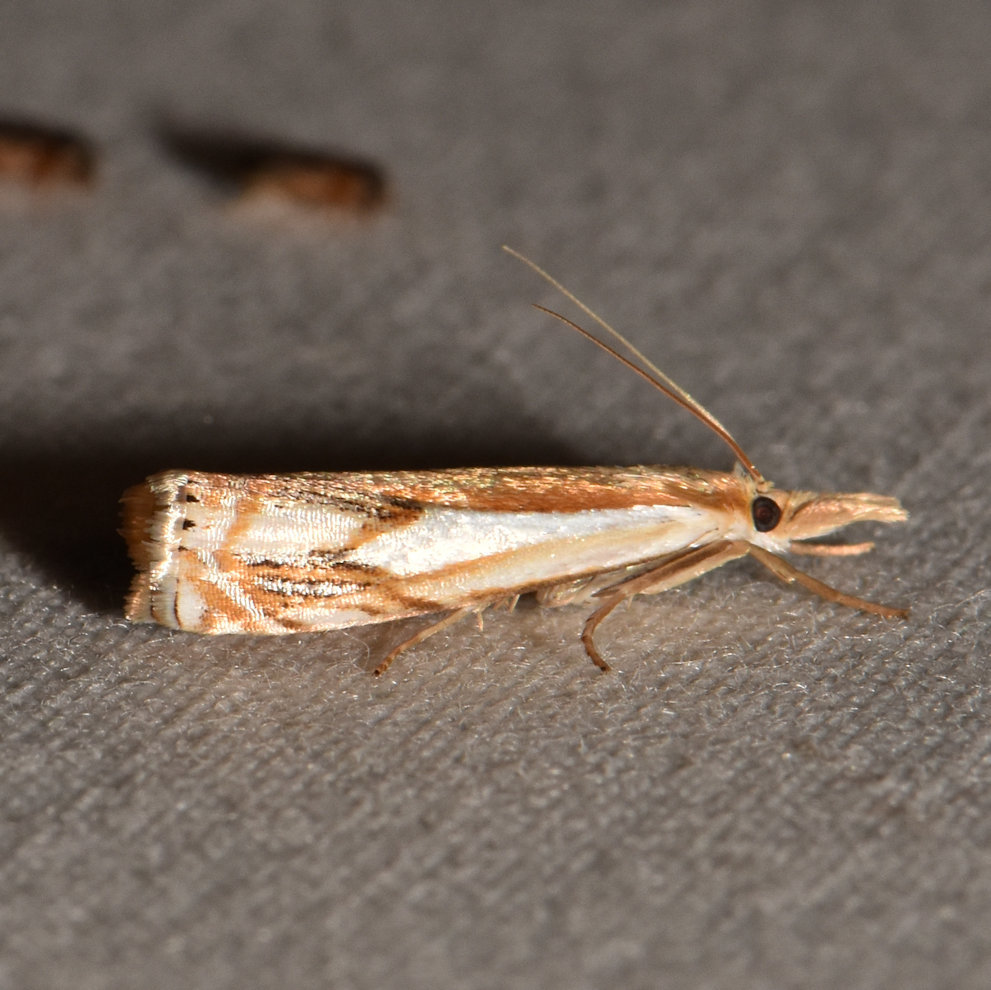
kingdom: Animalia
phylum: Arthropoda
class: Insecta
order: Lepidoptera
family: Crambidae
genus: Crambus
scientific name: Crambus agitatellus
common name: Double-banded grass-veneer
